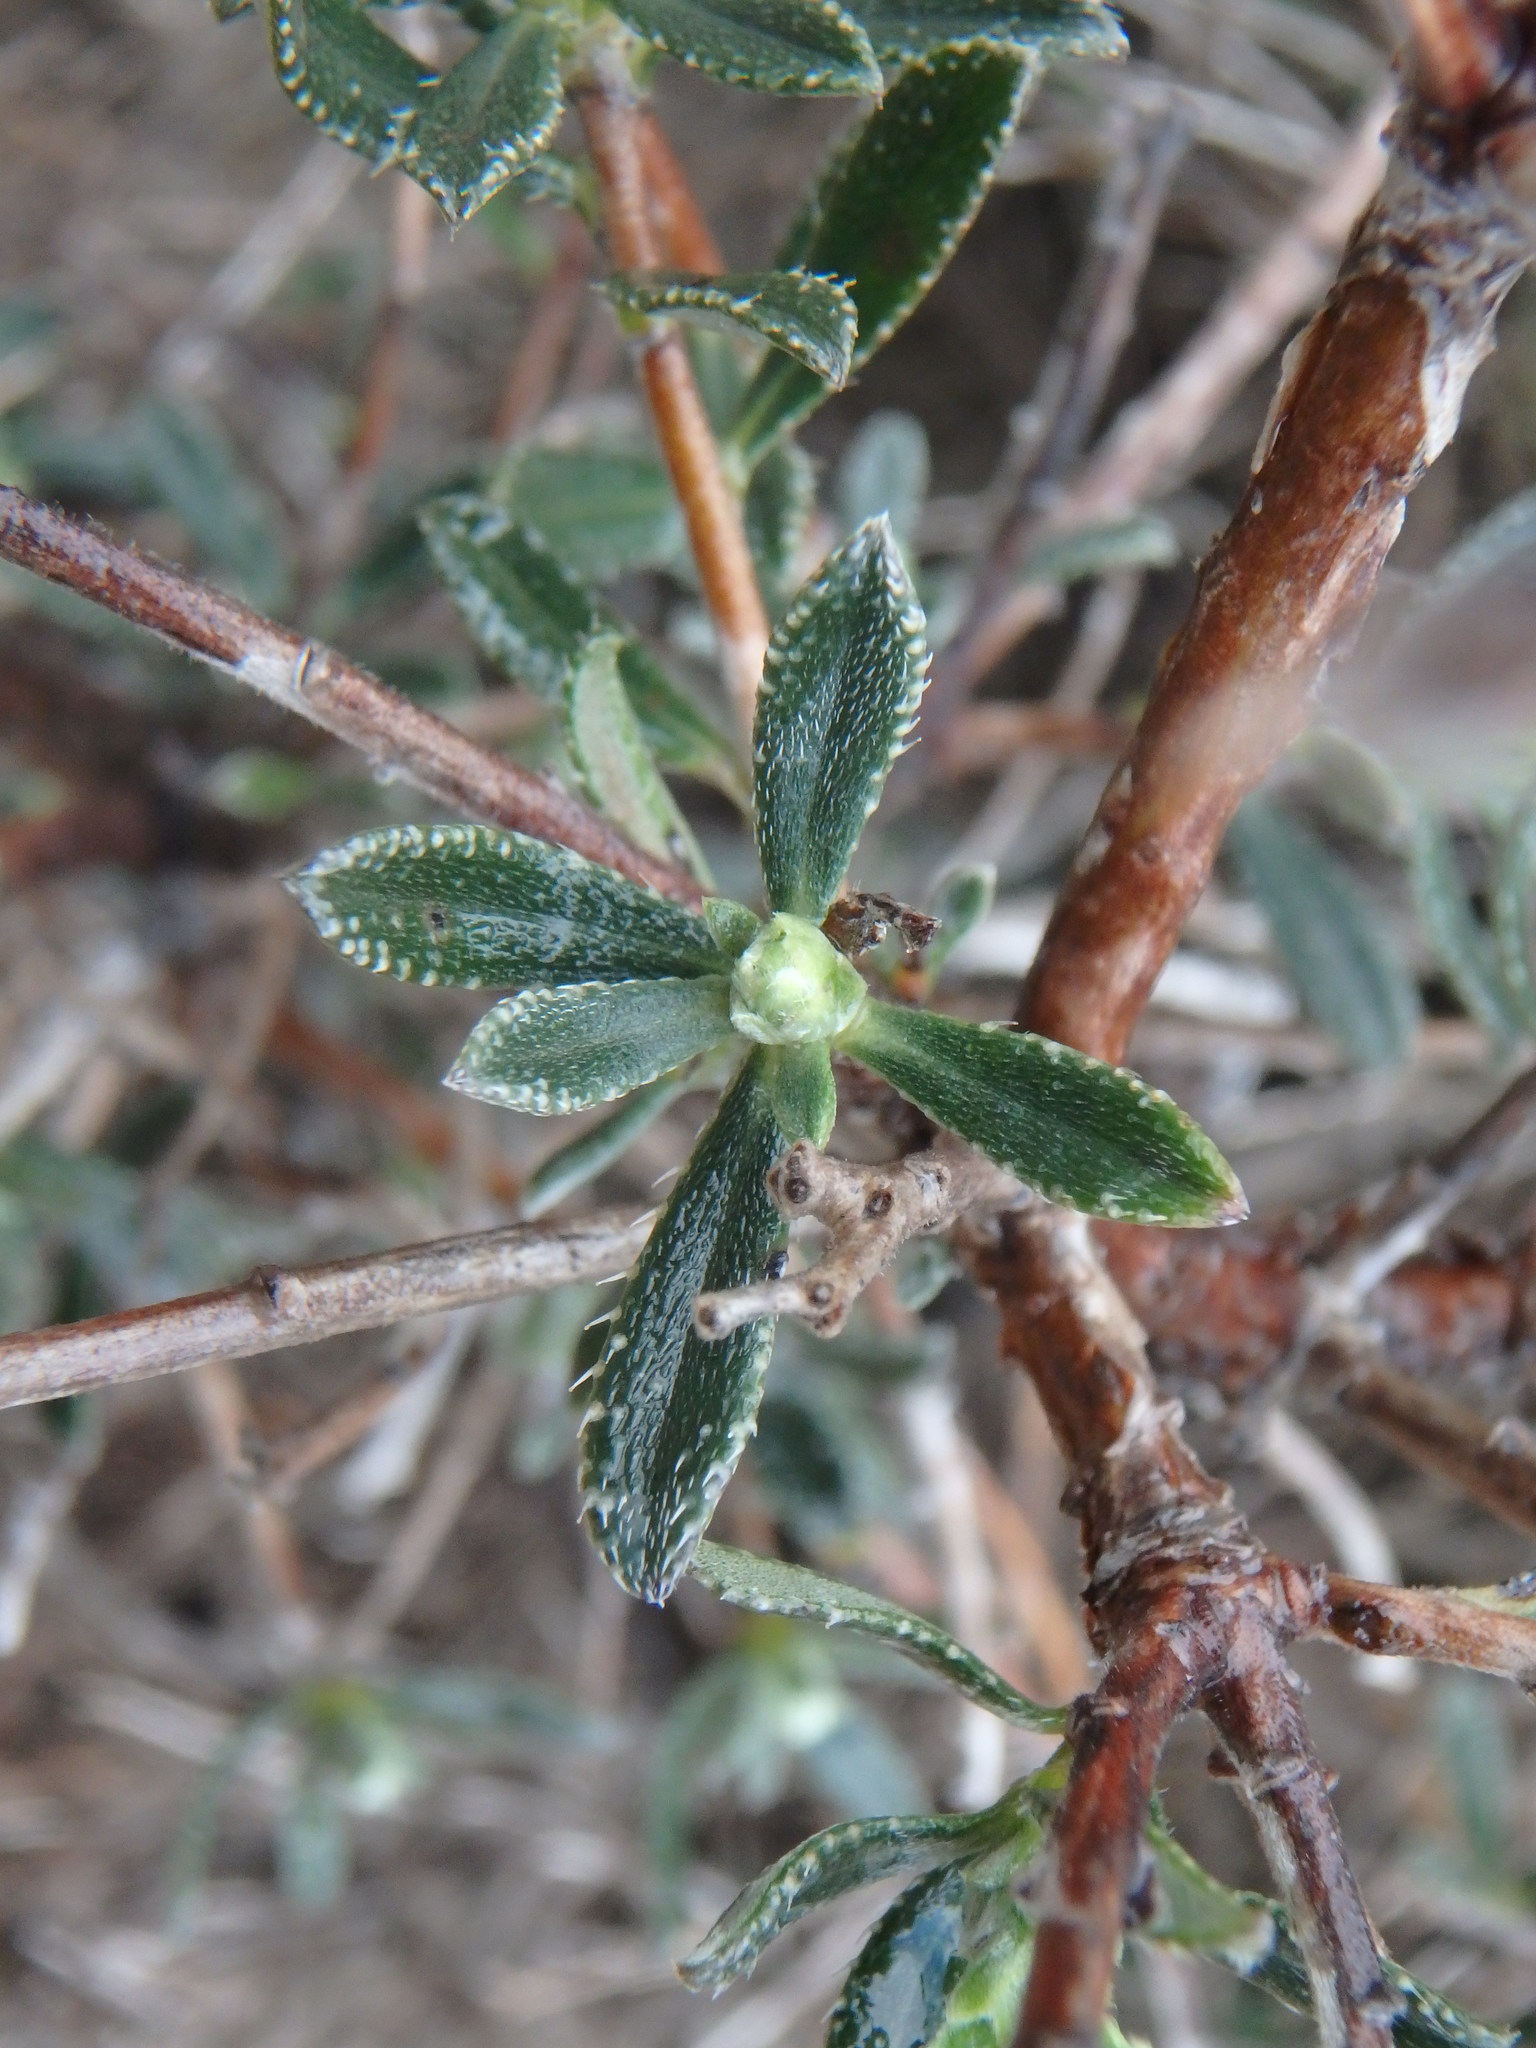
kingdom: Plantae
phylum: Tracheophyta
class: Magnoliopsida
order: Boraginales
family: Boraginaceae
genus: Lithodora
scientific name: Lithodora hispidula
